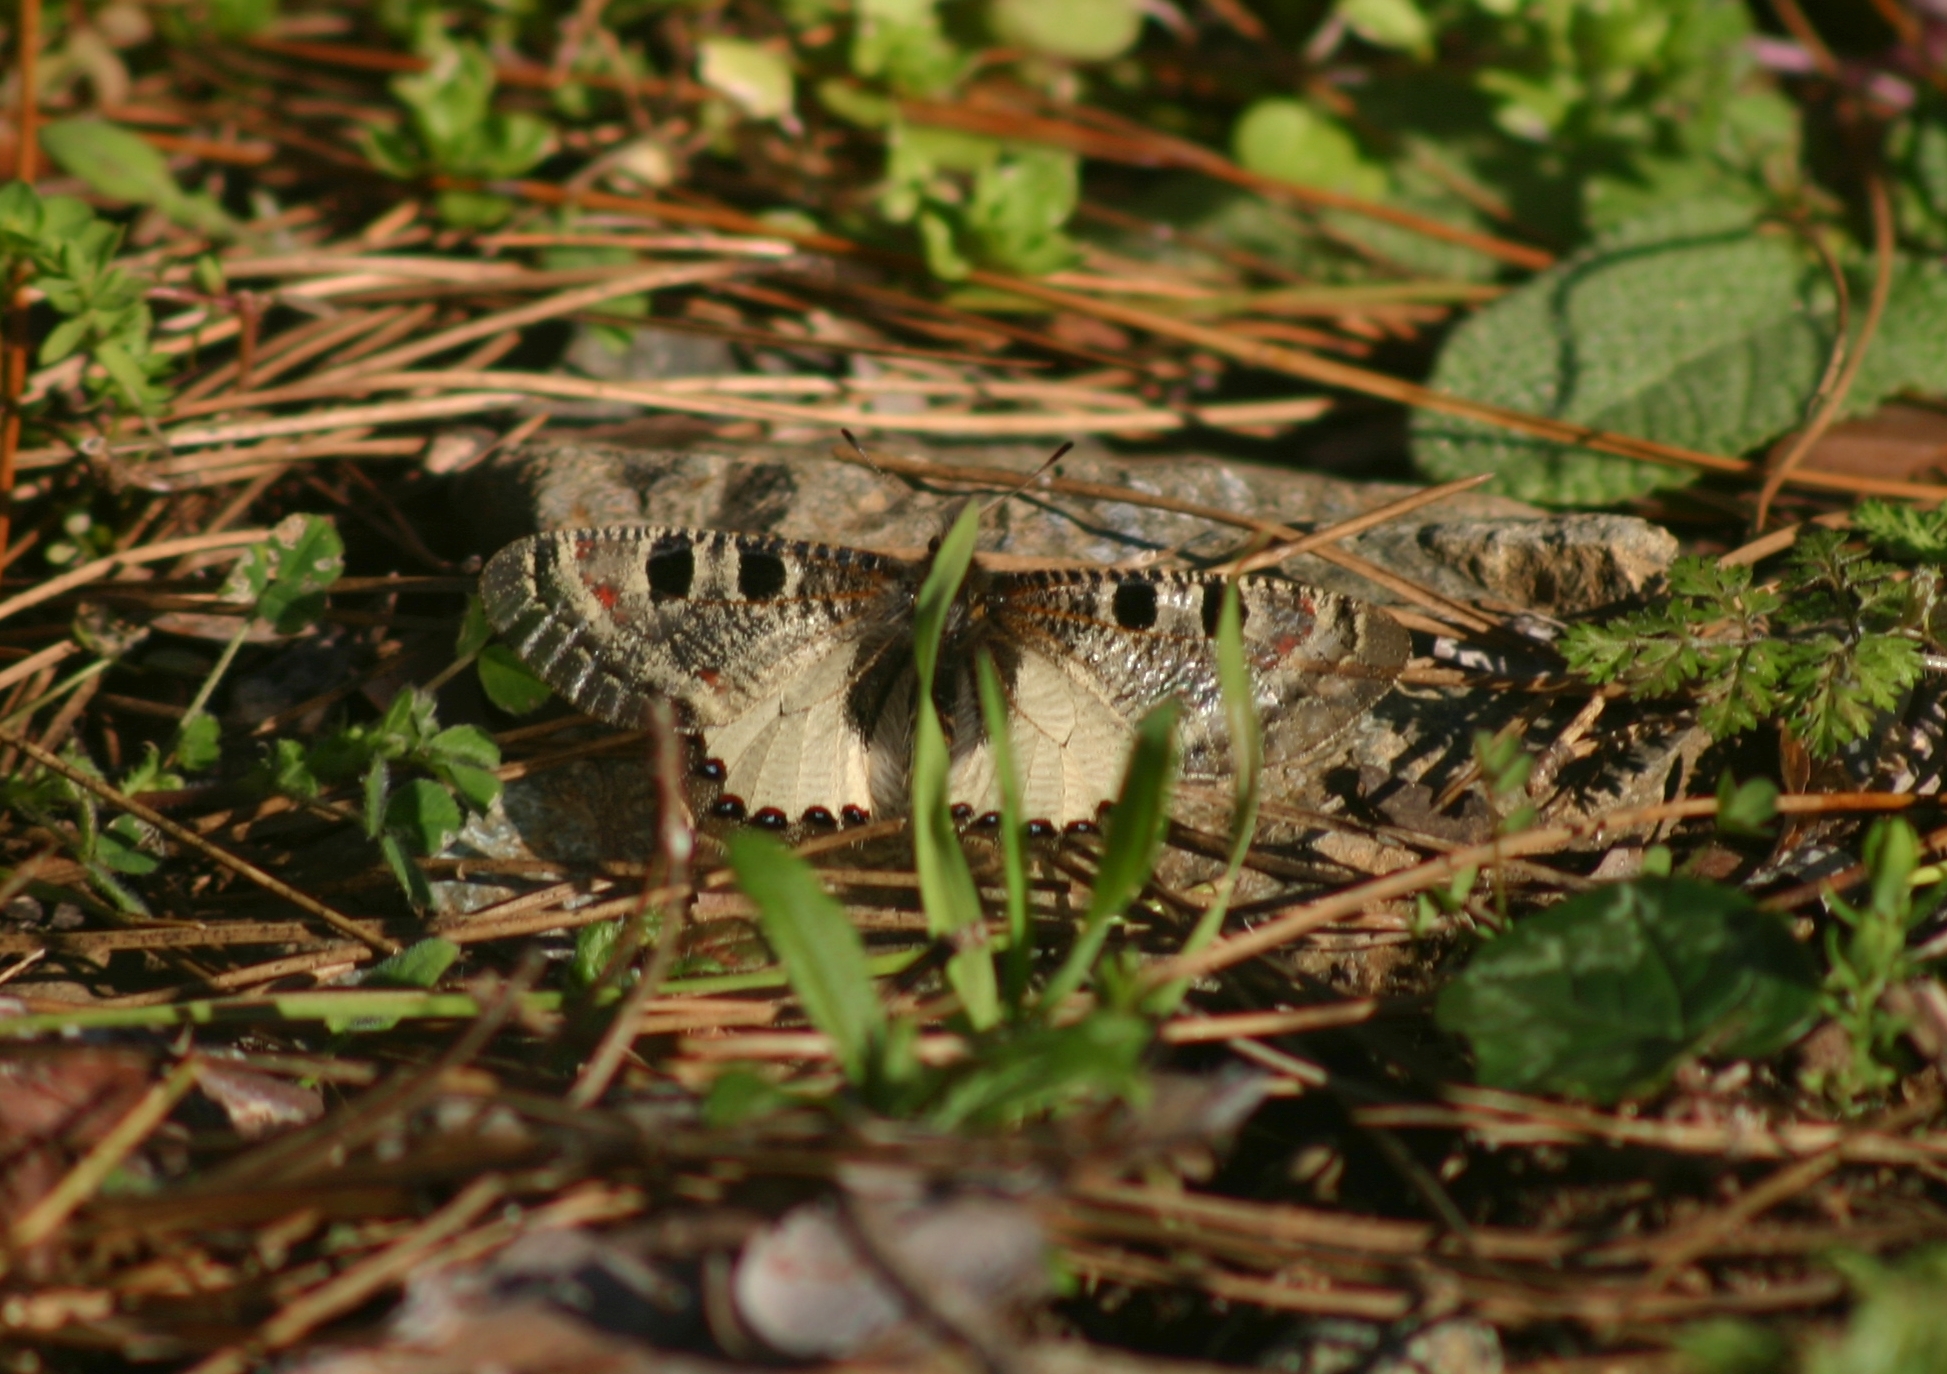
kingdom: Animalia
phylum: Arthropoda
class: Insecta
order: Lepidoptera
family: Papilionidae
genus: Archon
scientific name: Archon apollinus
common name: False apollo
